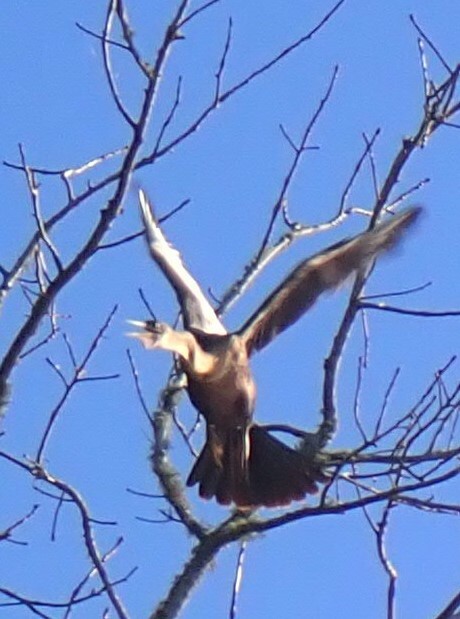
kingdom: Animalia
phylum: Chordata
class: Aves
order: Suliformes
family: Anhingidae
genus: Anhinga
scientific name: Anhinga anhinga
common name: Anhinga
